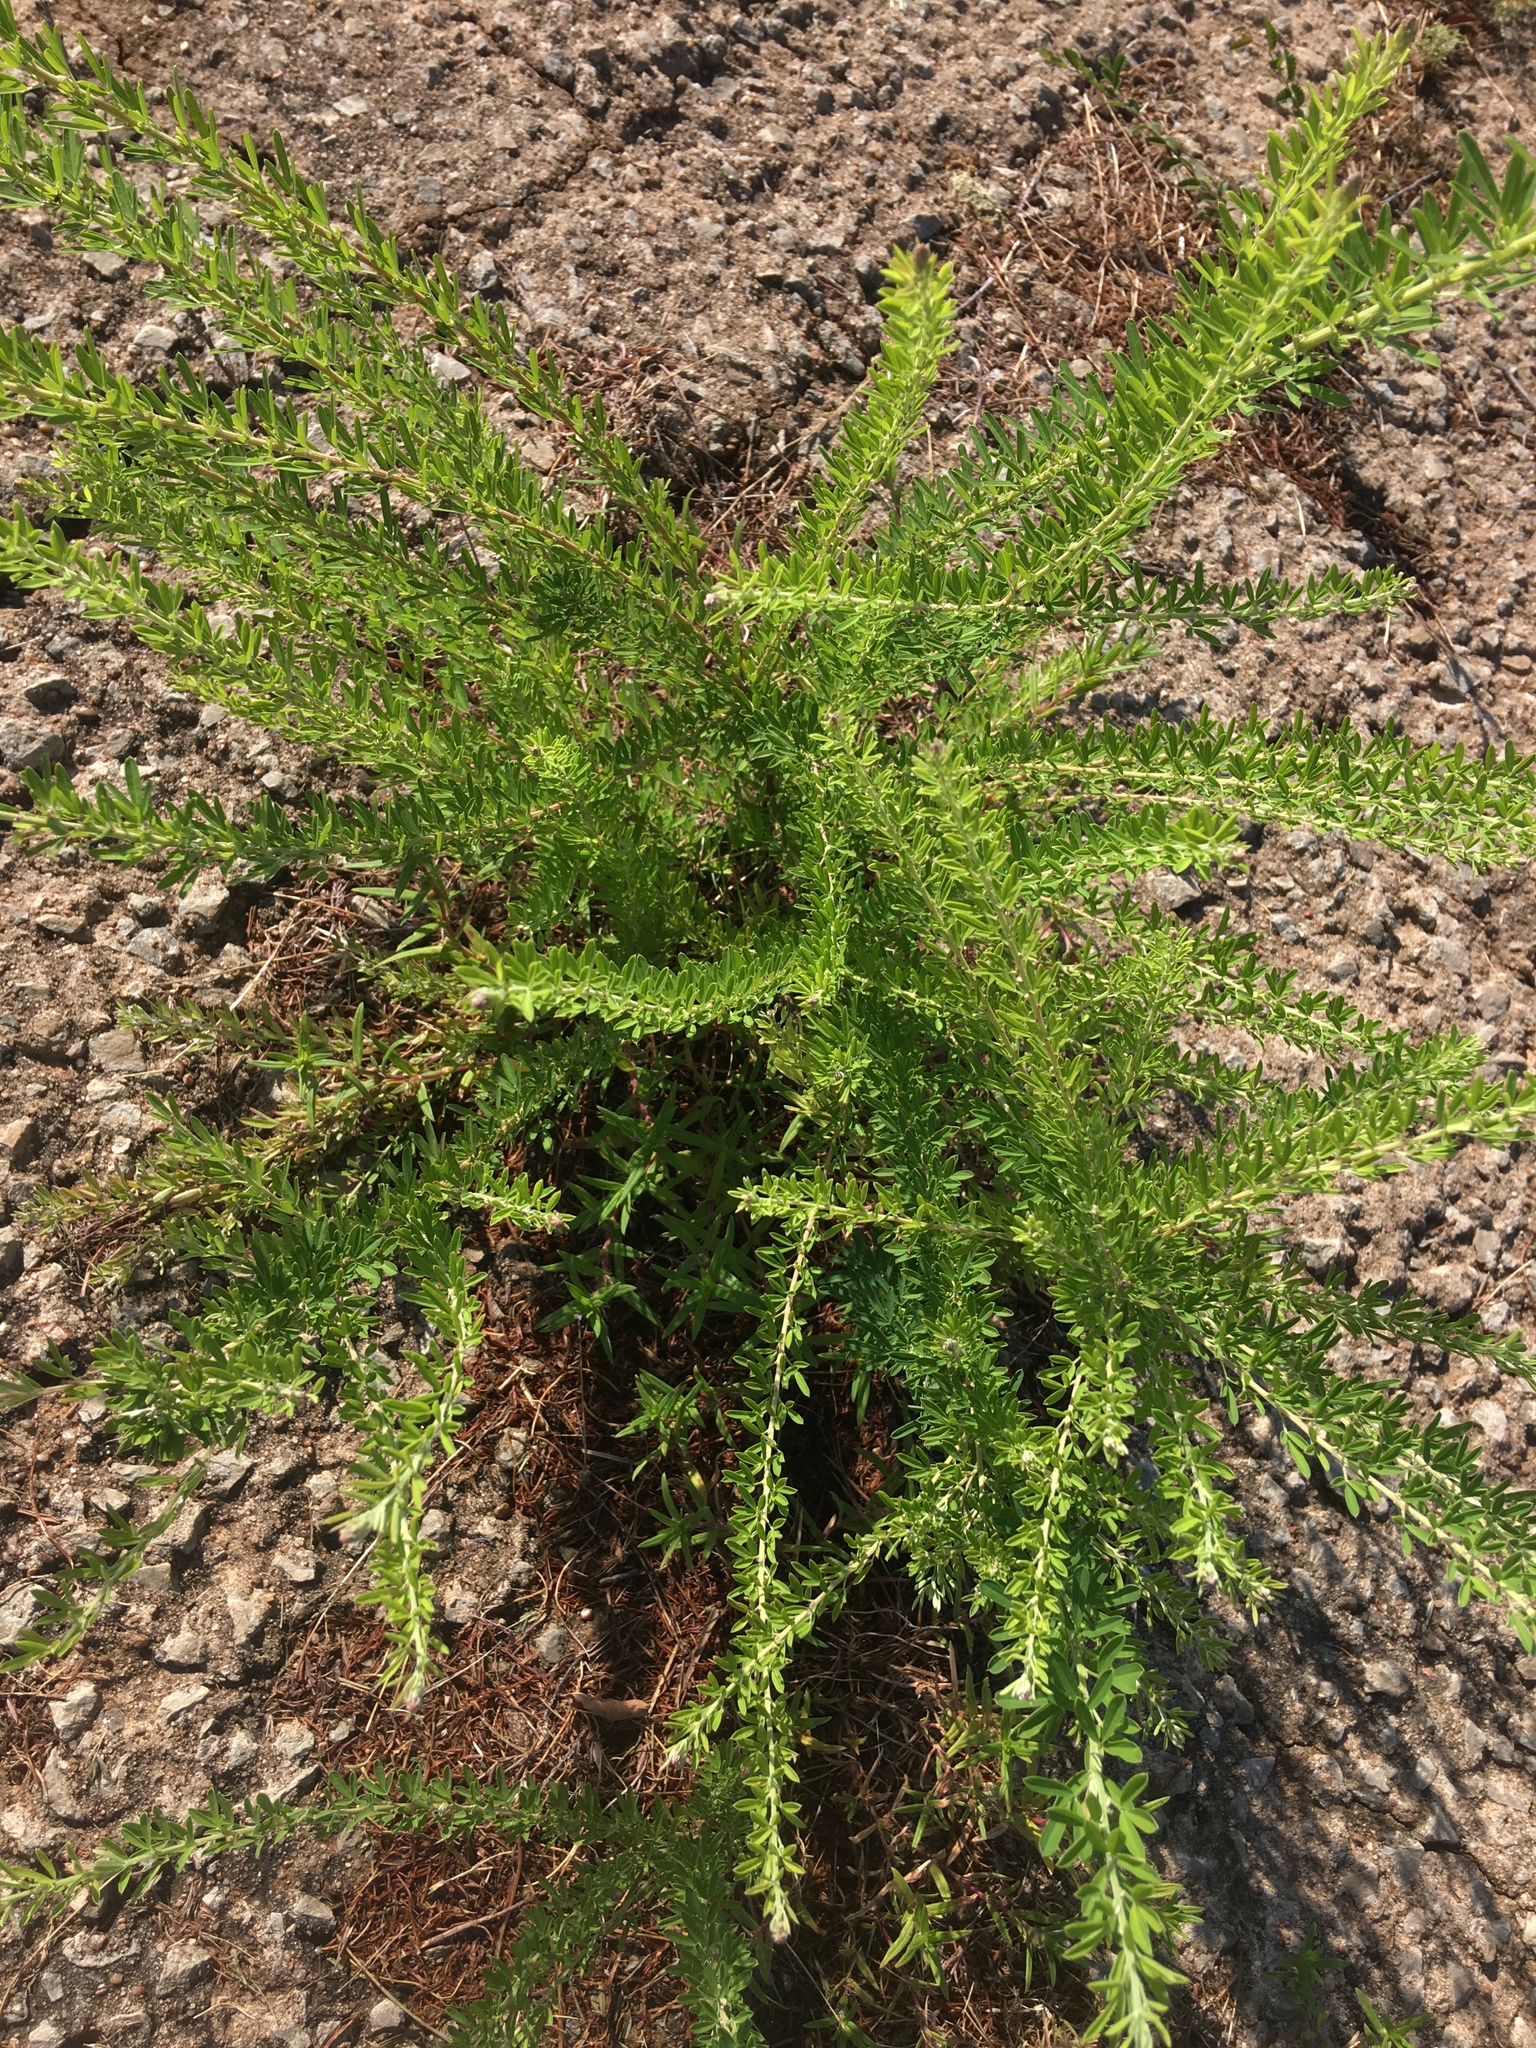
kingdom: Plantae
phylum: Tracheophyta
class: Magnoliopsida
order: Fabales
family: Fabaceae
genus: Lespedeza
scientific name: Lespedeza cuneata
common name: Chinese bush-clover
